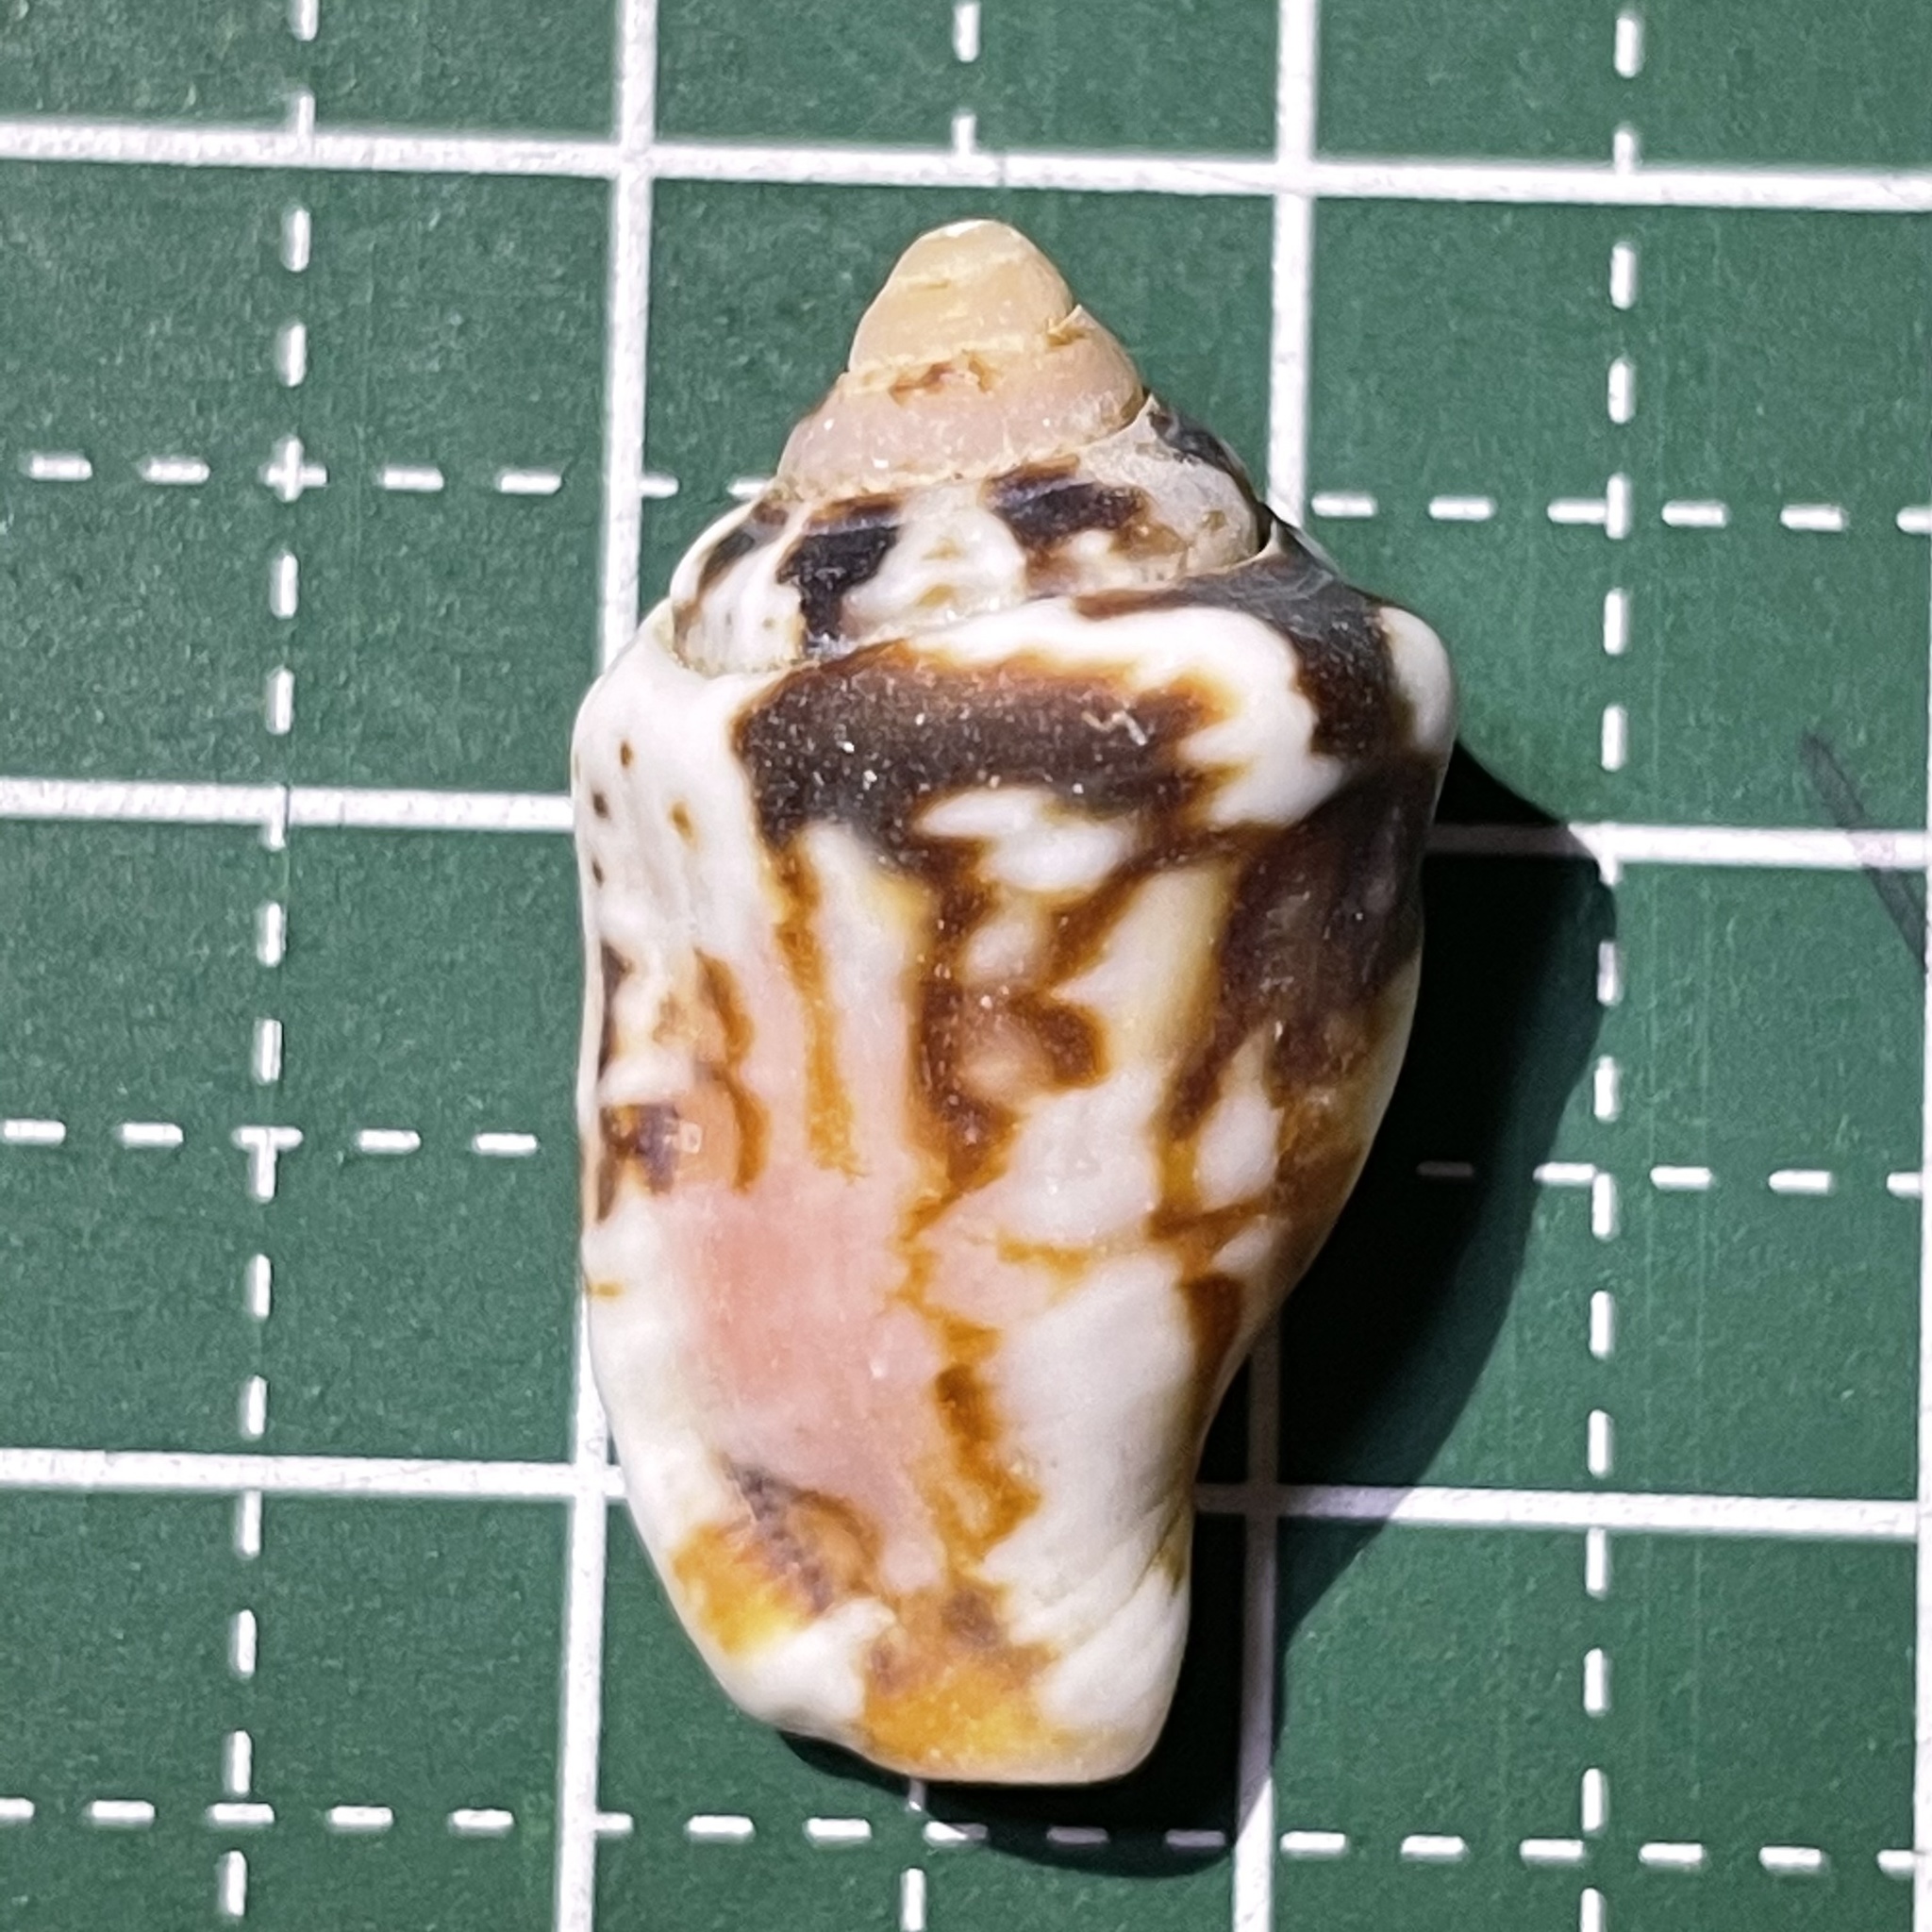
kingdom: Animalia
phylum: Mollusca
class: Gastropoda
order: Littorinimorpha
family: Strombidae
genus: Canarium
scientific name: Canarium mutabile
